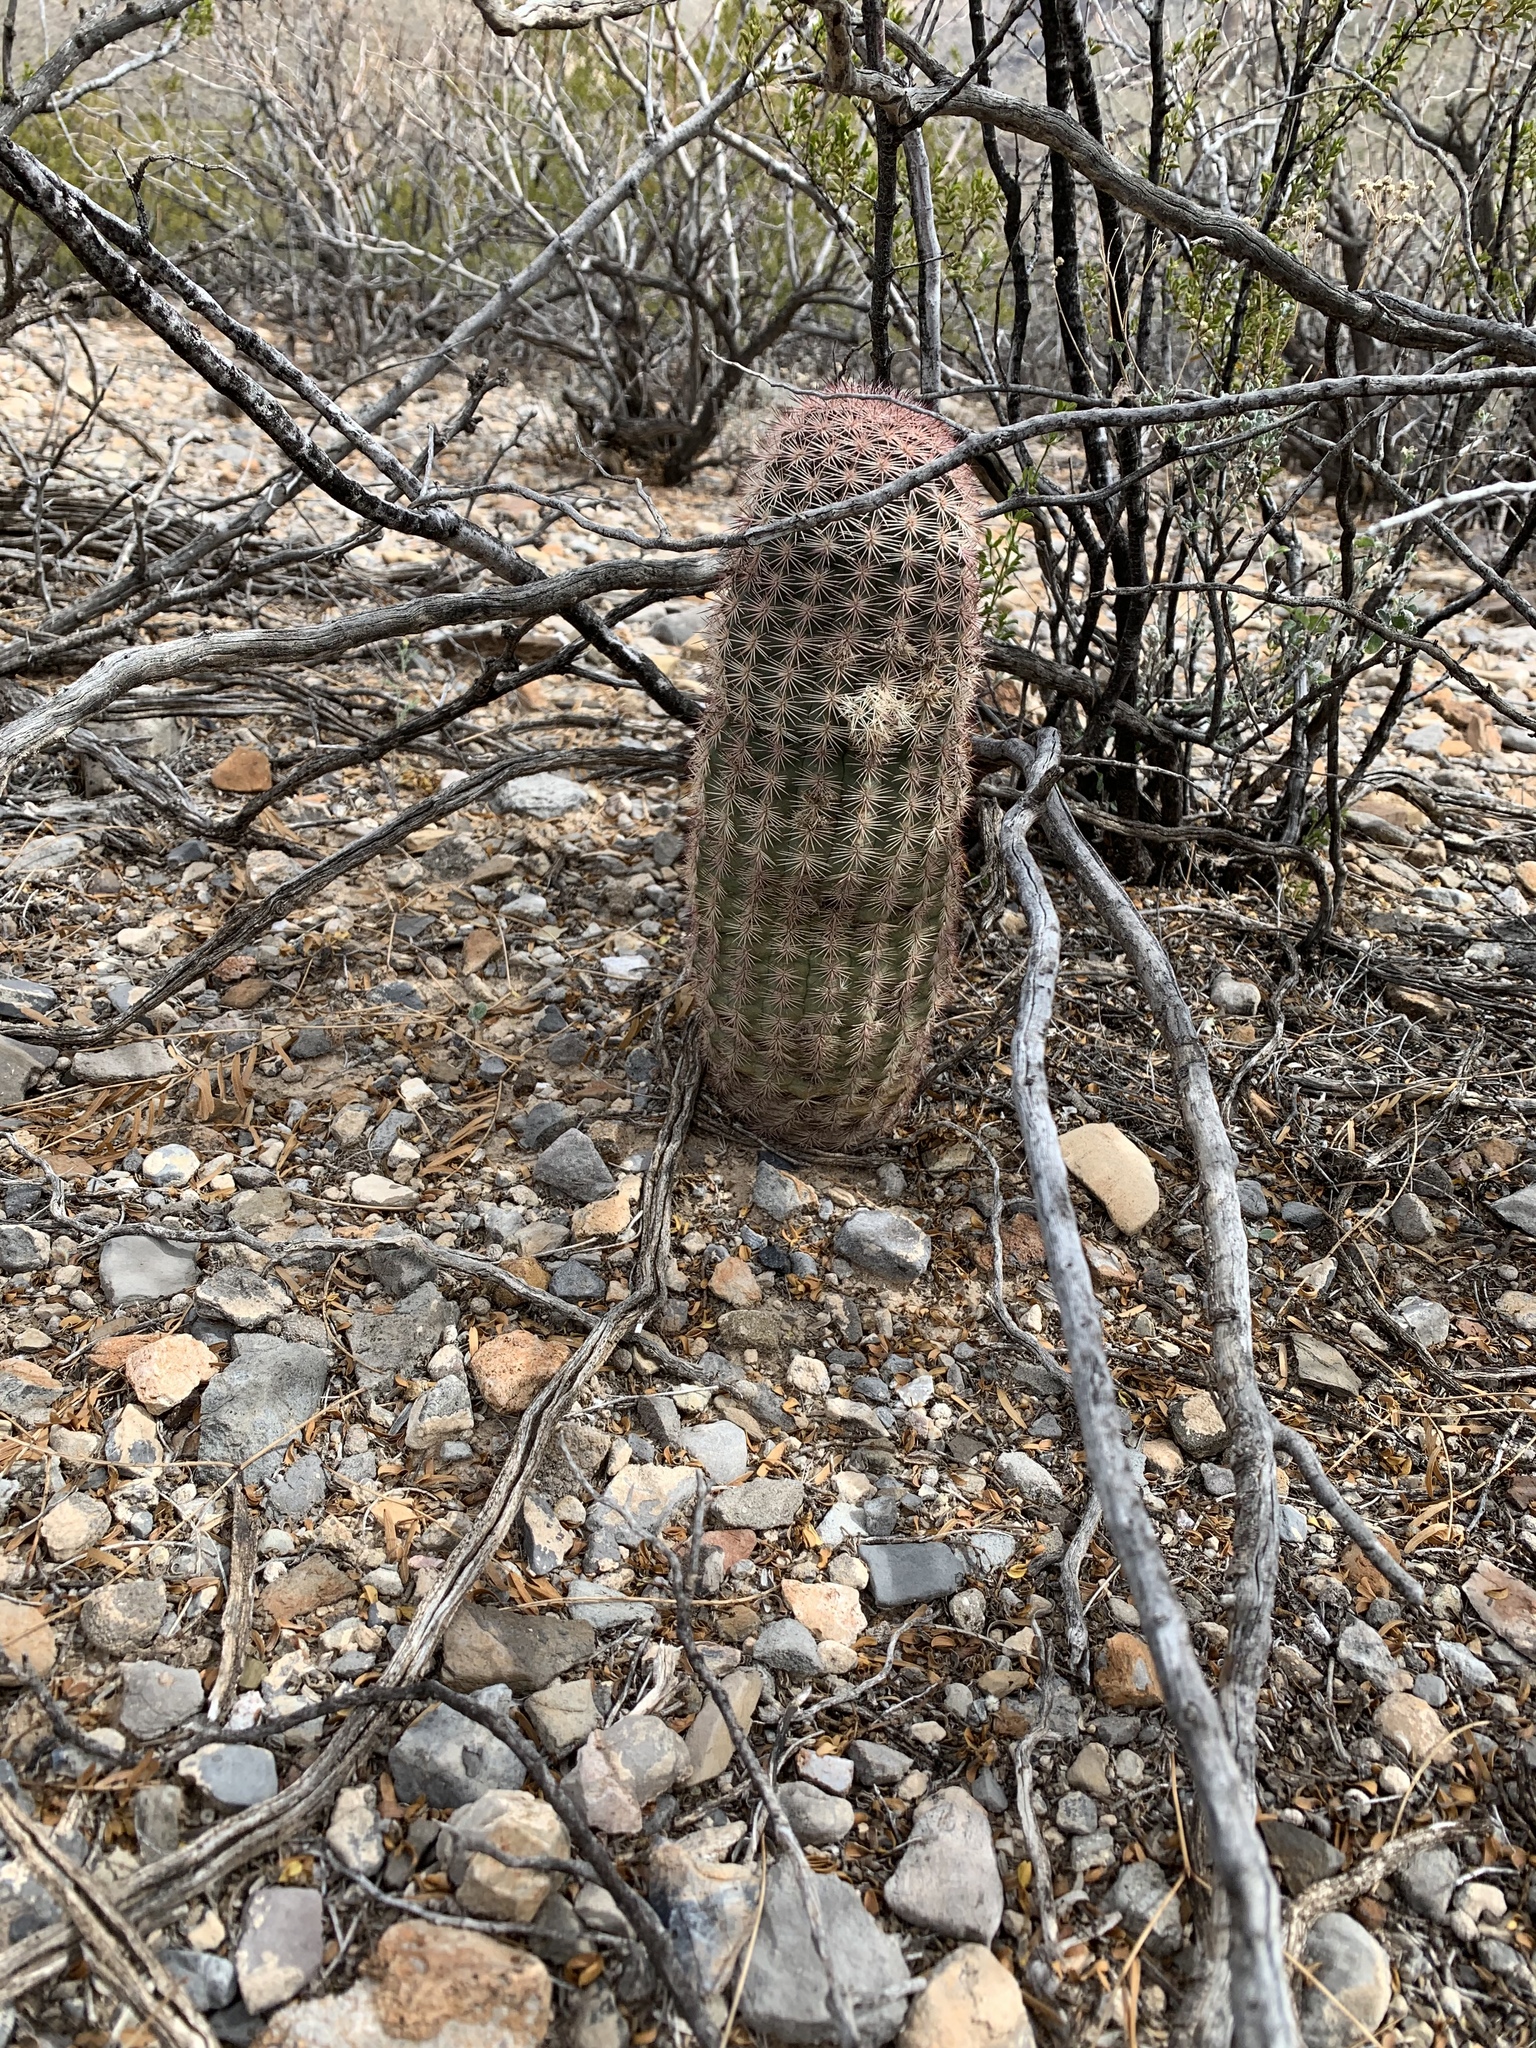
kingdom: Plantae
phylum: Tracheophyta
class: Magnoliopsida
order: Caryophyllales
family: Cactaceae
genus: Echinocereus
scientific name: Echinocereus dasyacanthus
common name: Spiny hedgehog cactus
